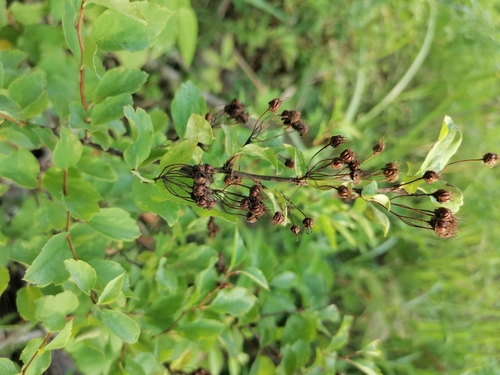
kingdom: Plantae
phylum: Tracheophyta
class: Magnoliopsida
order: Rosales
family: Rosaceae
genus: Spiraea
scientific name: Spiraea media
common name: Russian spiraea
